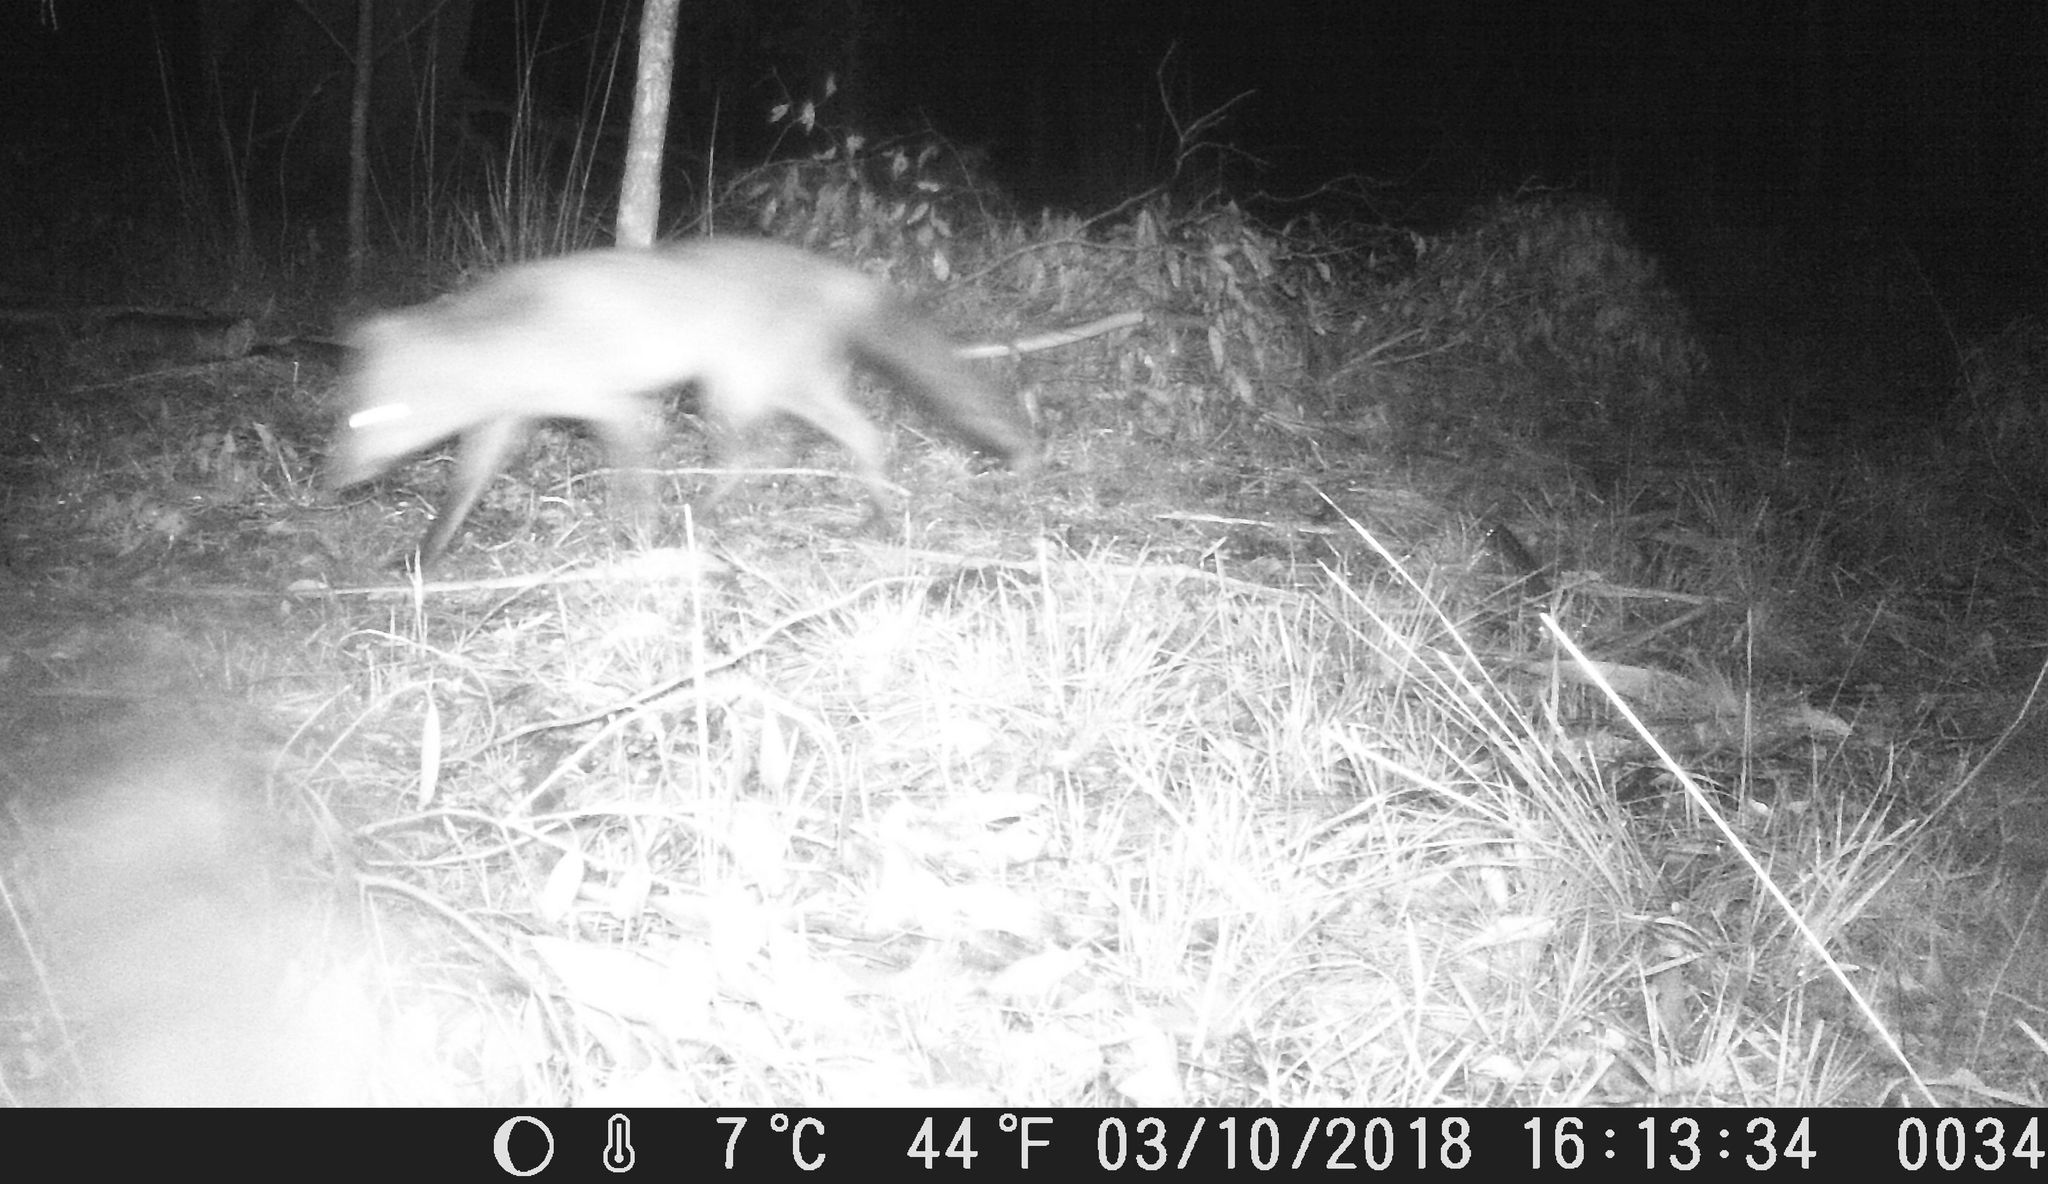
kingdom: Animalia
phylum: Chordata
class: Mammalia
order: Carnivora
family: Canidae
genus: Vulpes
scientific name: Vulpes vulpes
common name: Red fox
